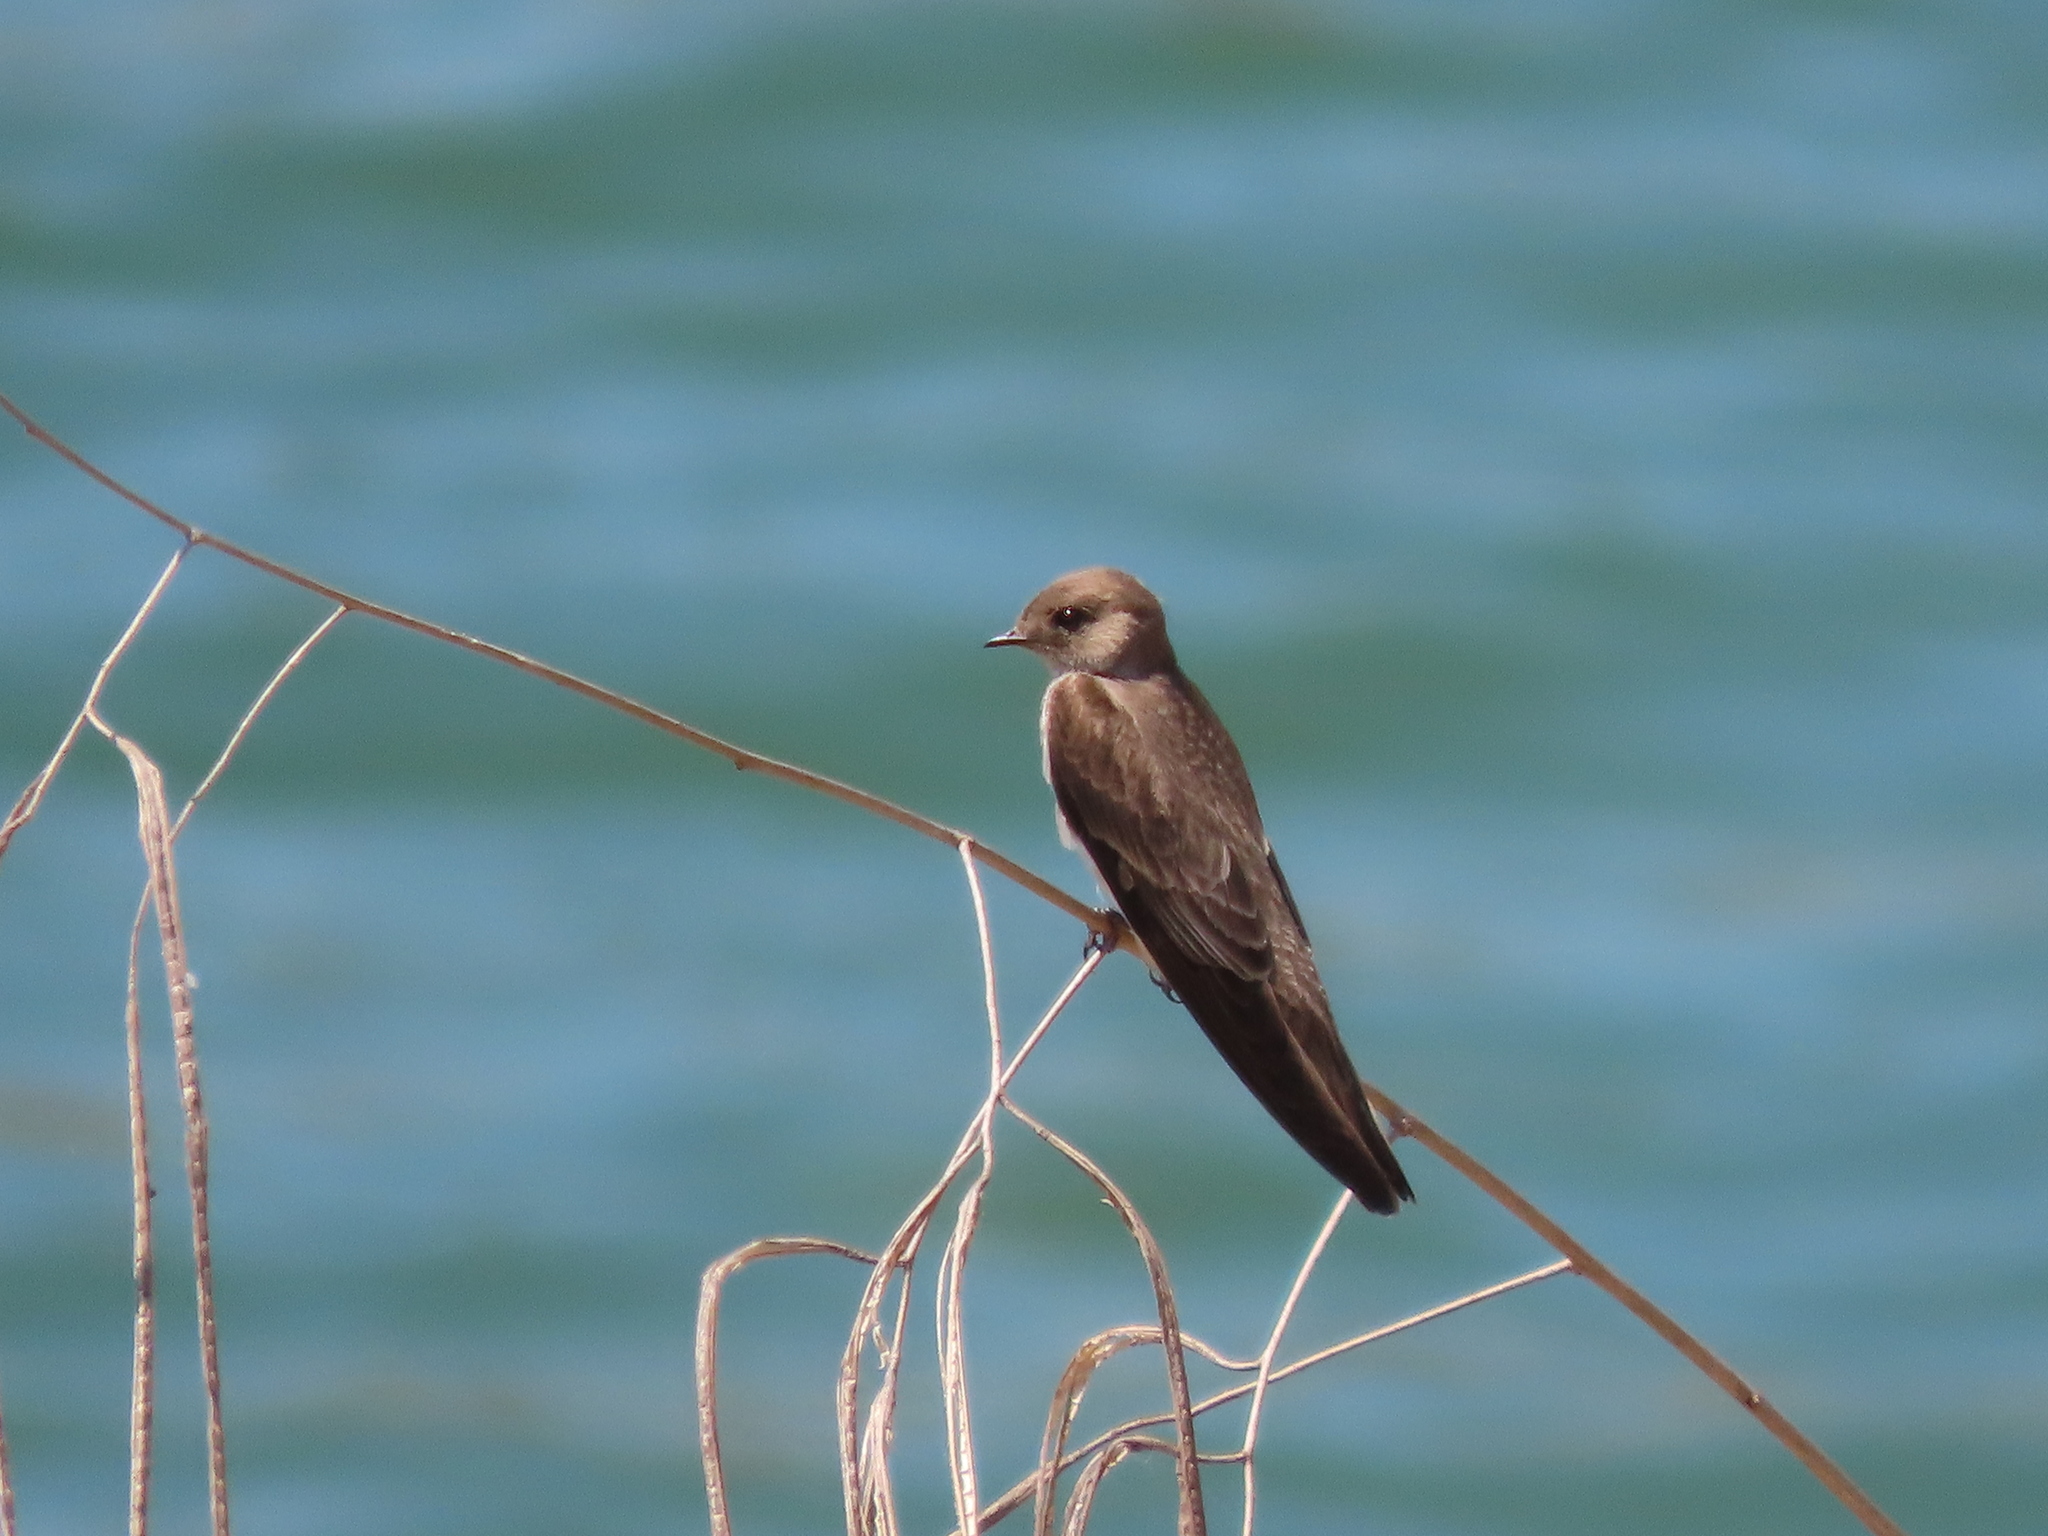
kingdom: Animalia
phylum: Chordata
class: Aves
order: Passeriformes
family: Hirundinidae
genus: Stelgidopteryx
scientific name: Stelgidopteryx serripennis
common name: Northern rough-winged swallow
